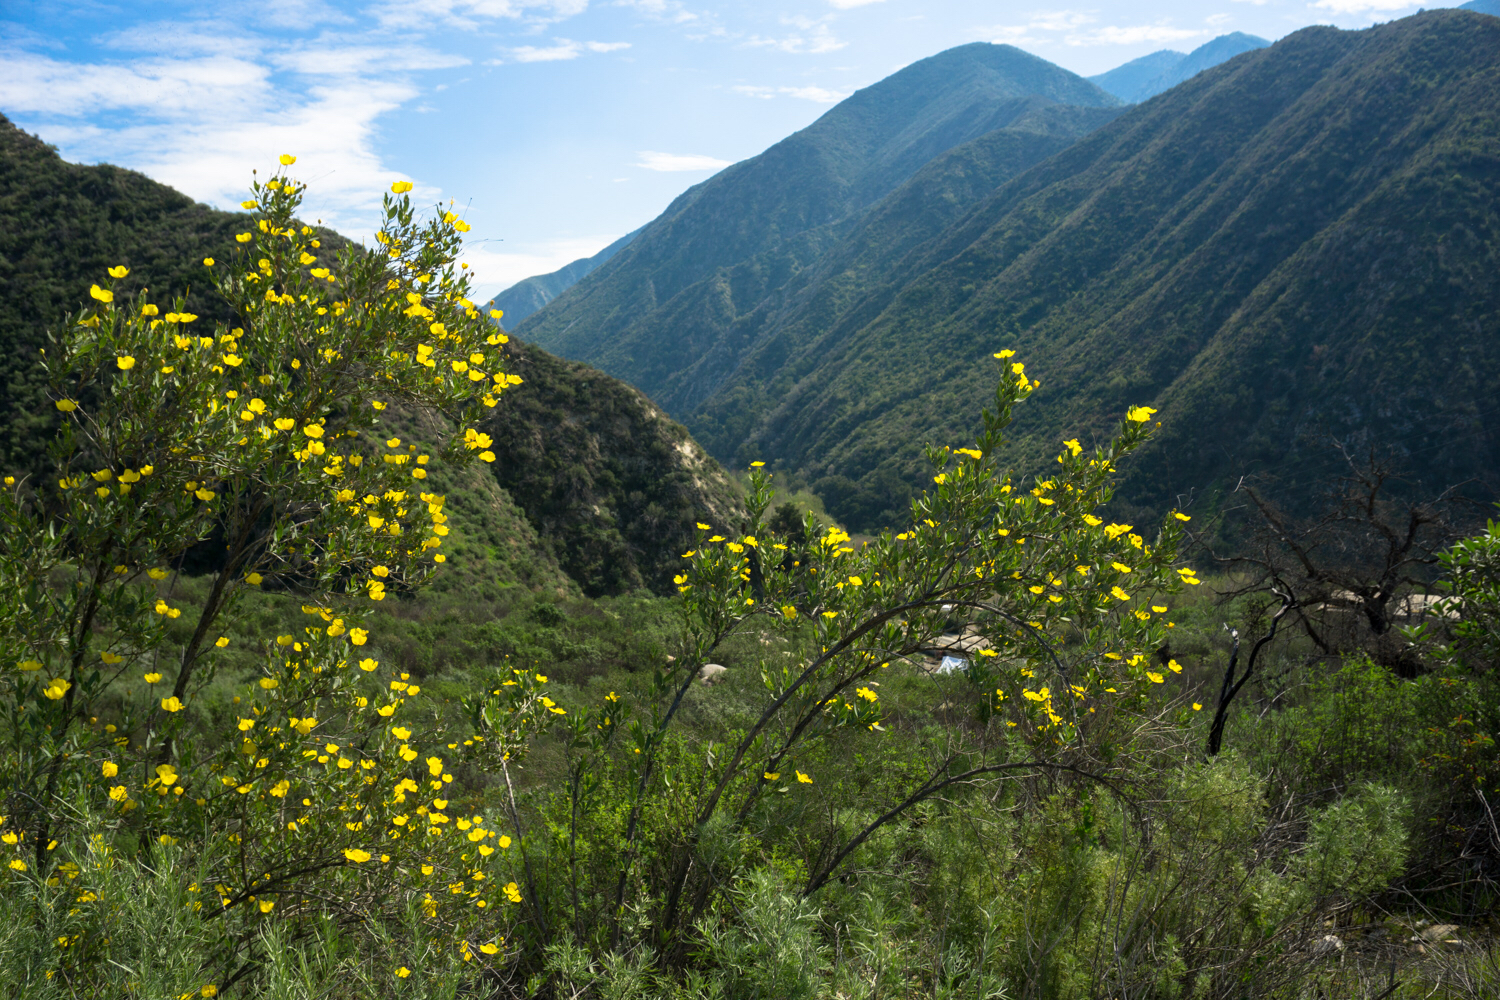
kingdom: Plantae
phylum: Tracheophyta
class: Magnoliopsida
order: Ranunculales
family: Papaveraceae
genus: Dendromecon
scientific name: Dendromecon rigida
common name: Tree poppy
